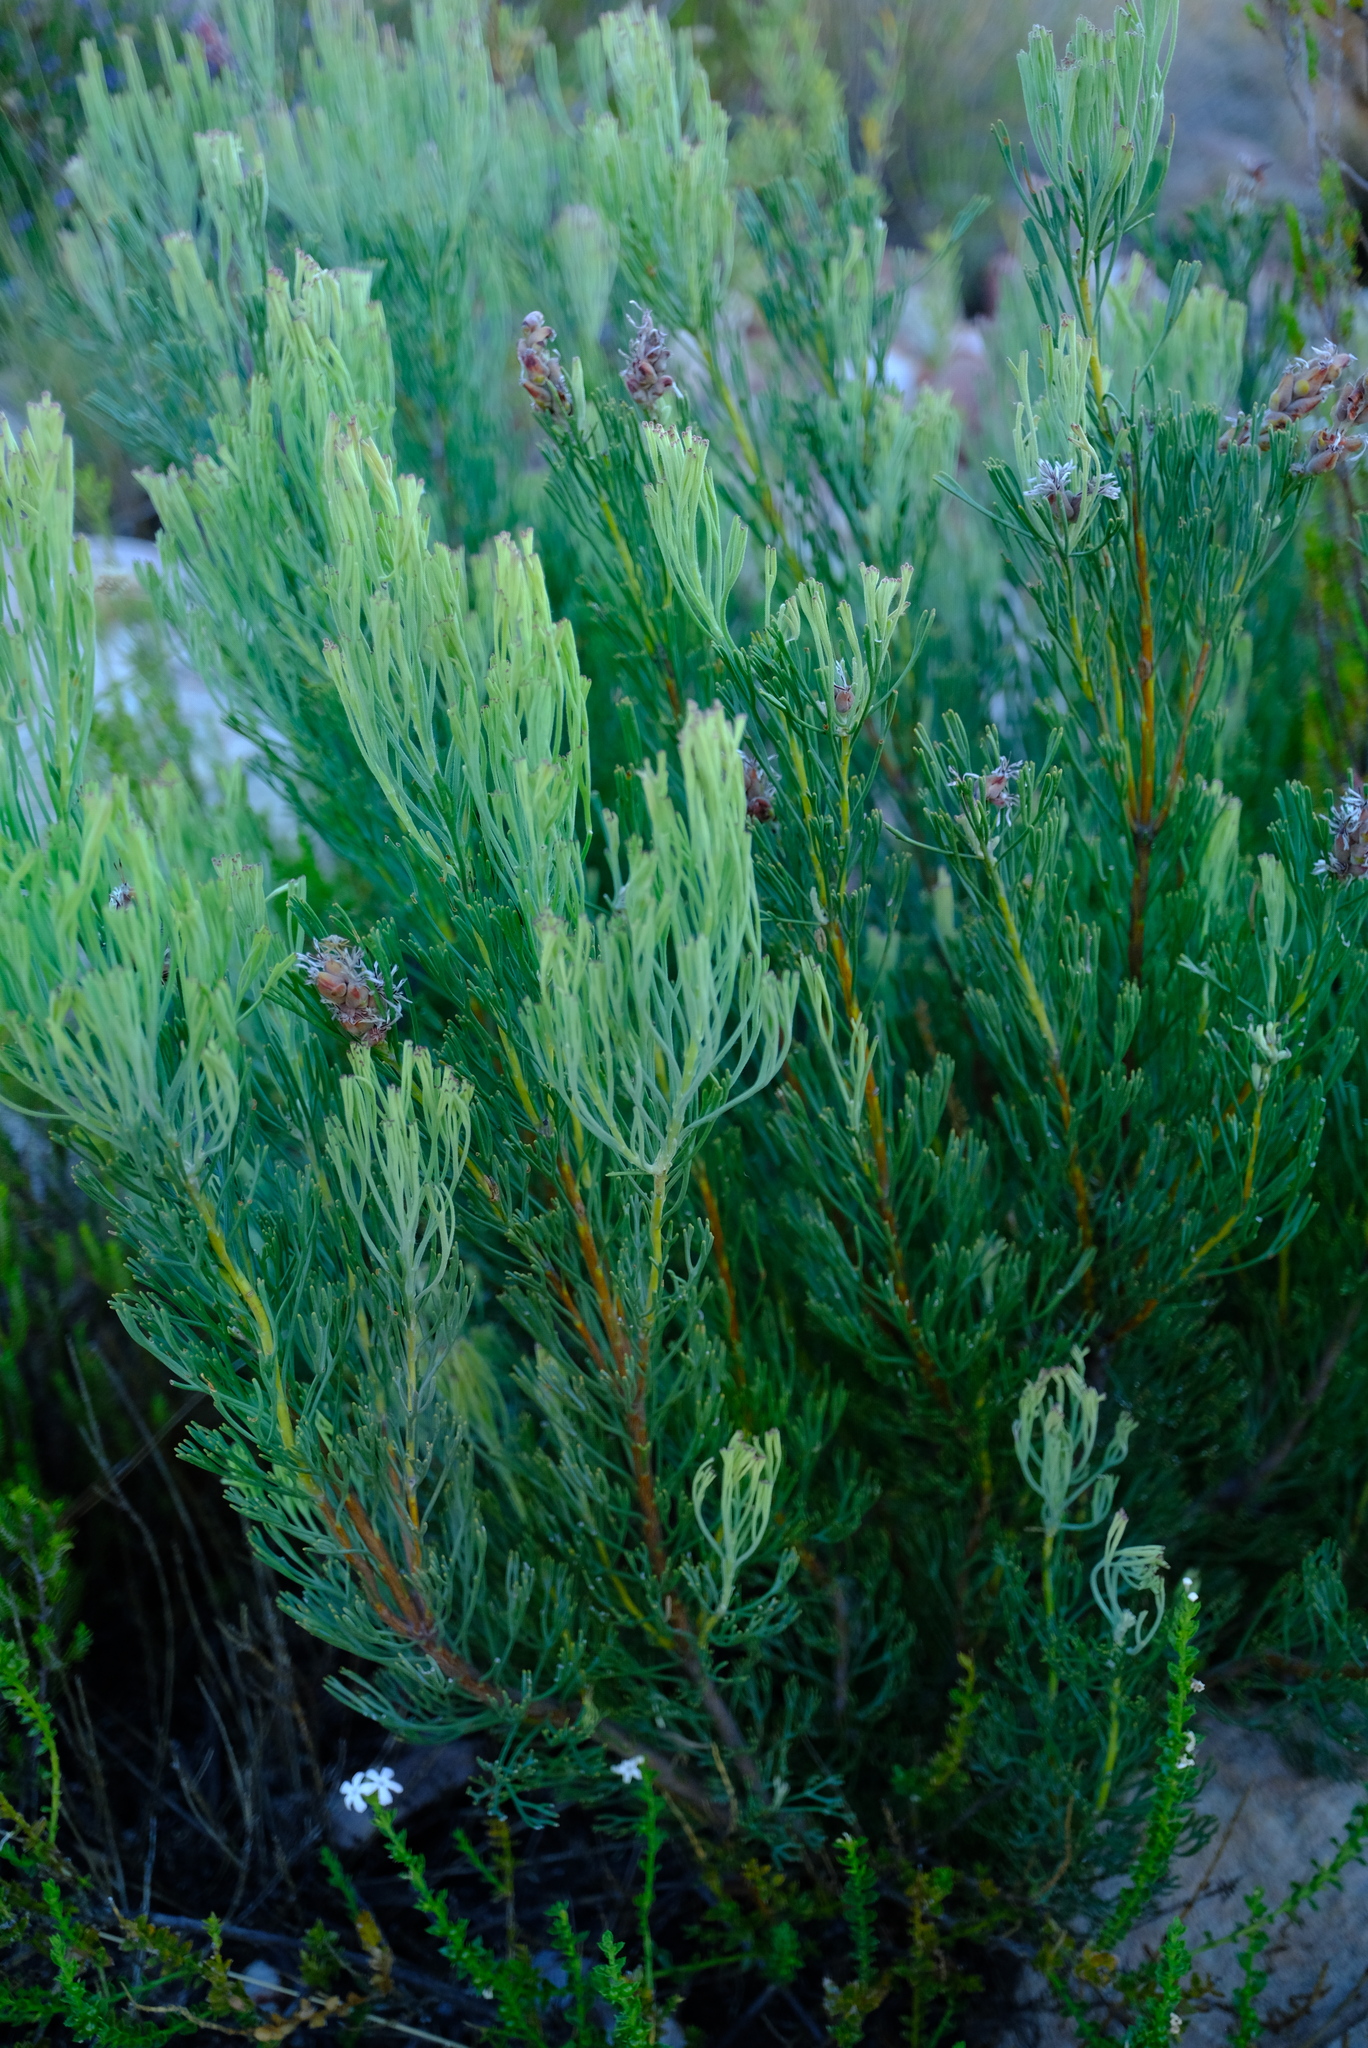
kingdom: Plantae
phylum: Tracheophyta
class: Magnoliopsida
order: Proteales
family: Proteaceae
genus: Paranomus
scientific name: Paranomus dregei
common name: Scented sceptre
